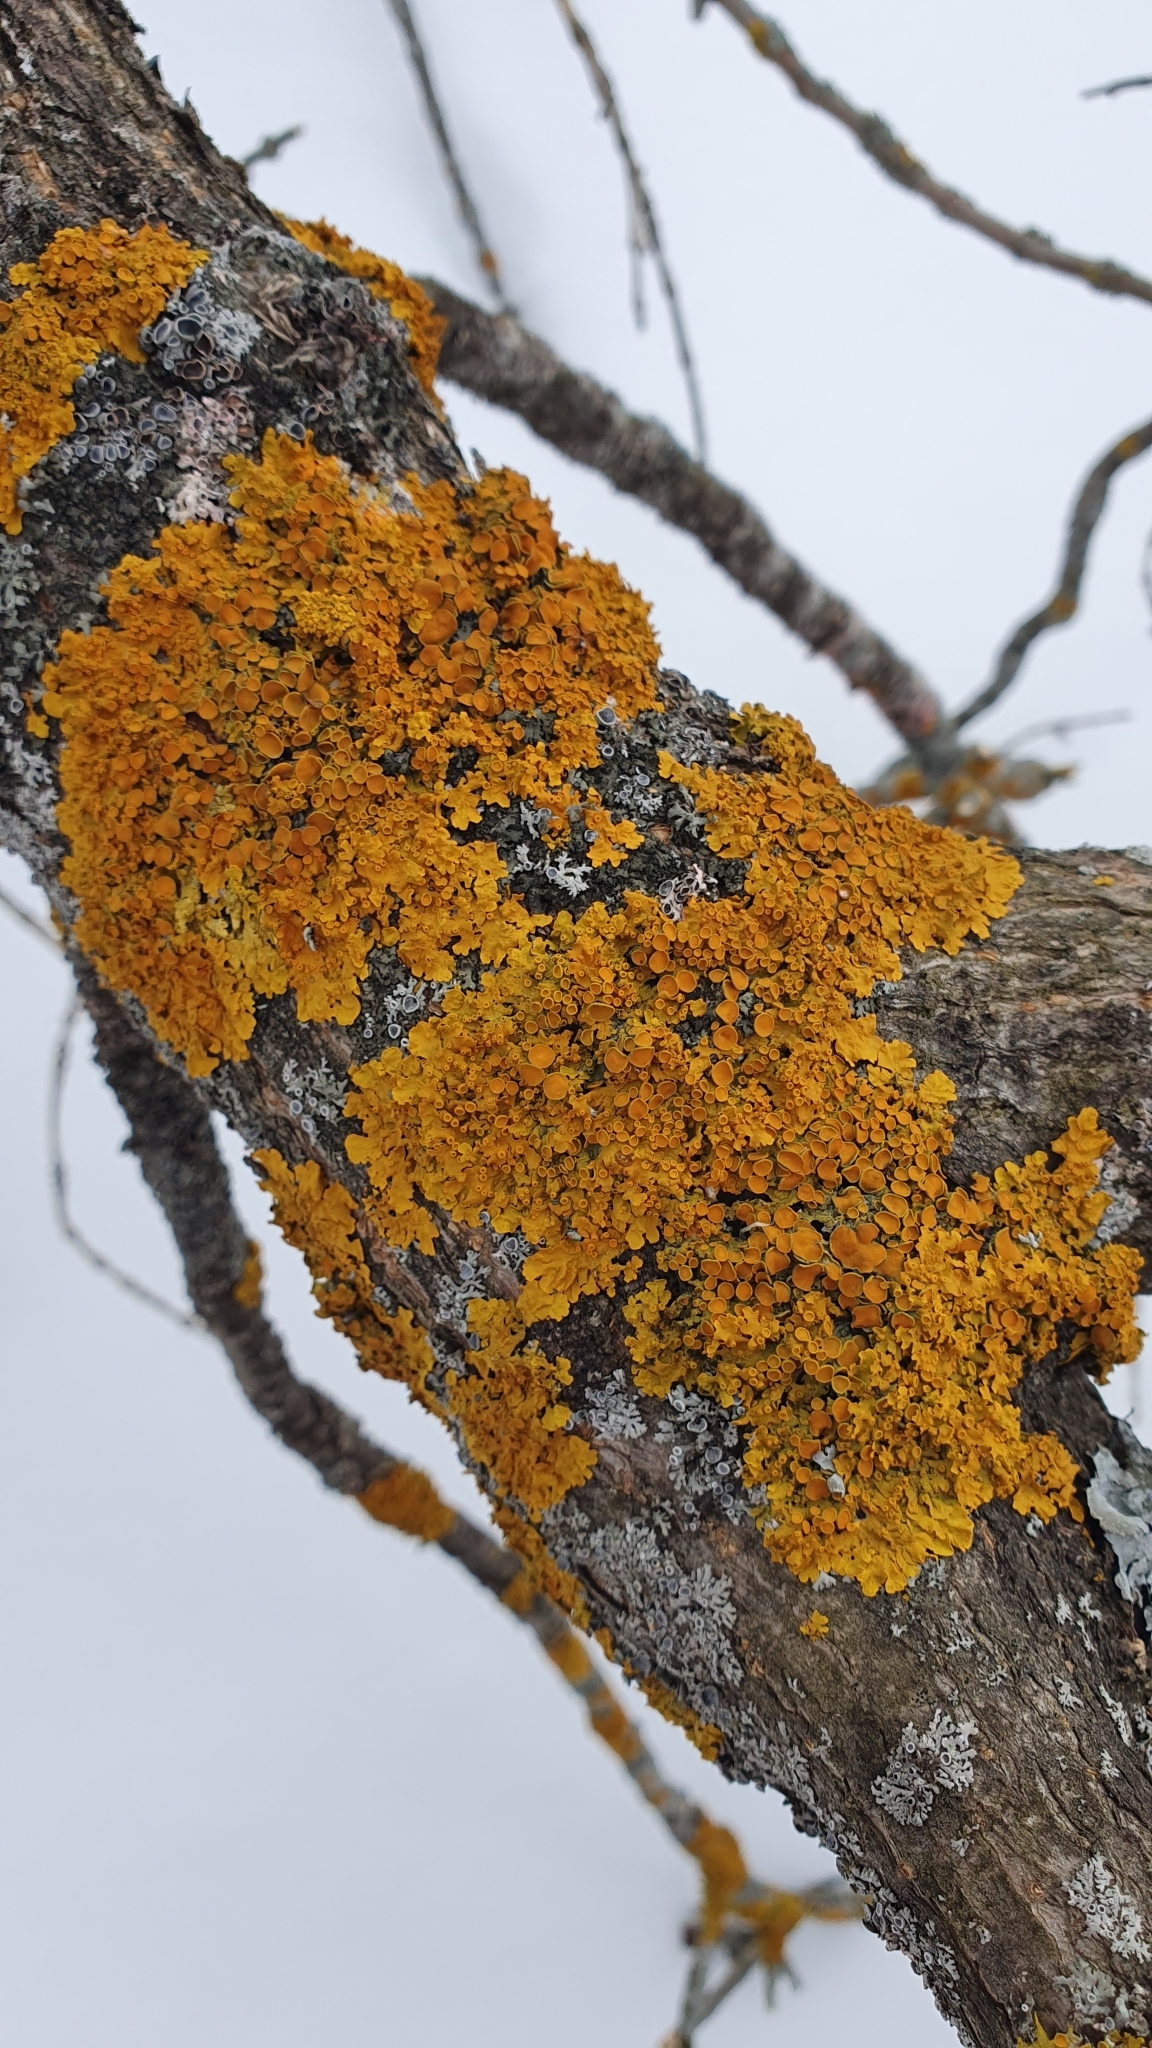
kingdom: Fungi
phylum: Ascomycota
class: Lecanoromycetes
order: Teloschistales
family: Teloschistaceae
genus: Xanthoria
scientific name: Xanthoria parietina
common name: Common orange lichen
